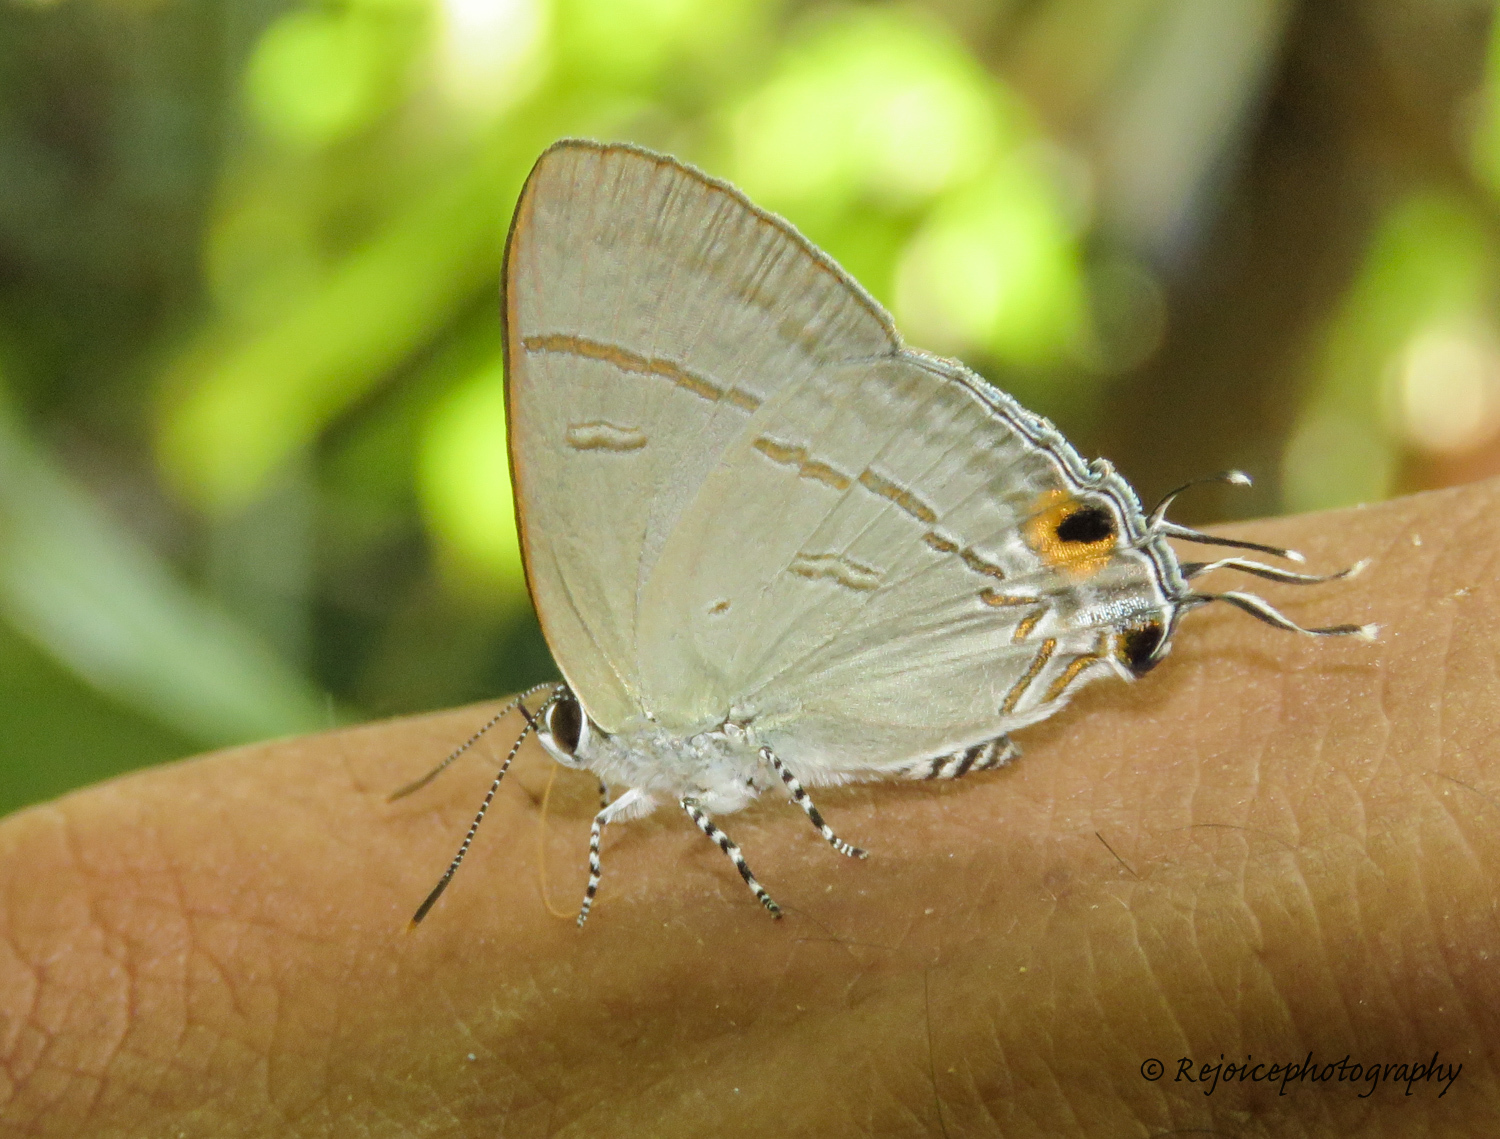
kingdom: Animalia
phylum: Arthropoda
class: Insecta
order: Lepidoptera
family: Lycaenidae
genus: Hypolycaena
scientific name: Hypolycaena erylus
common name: Common tit
